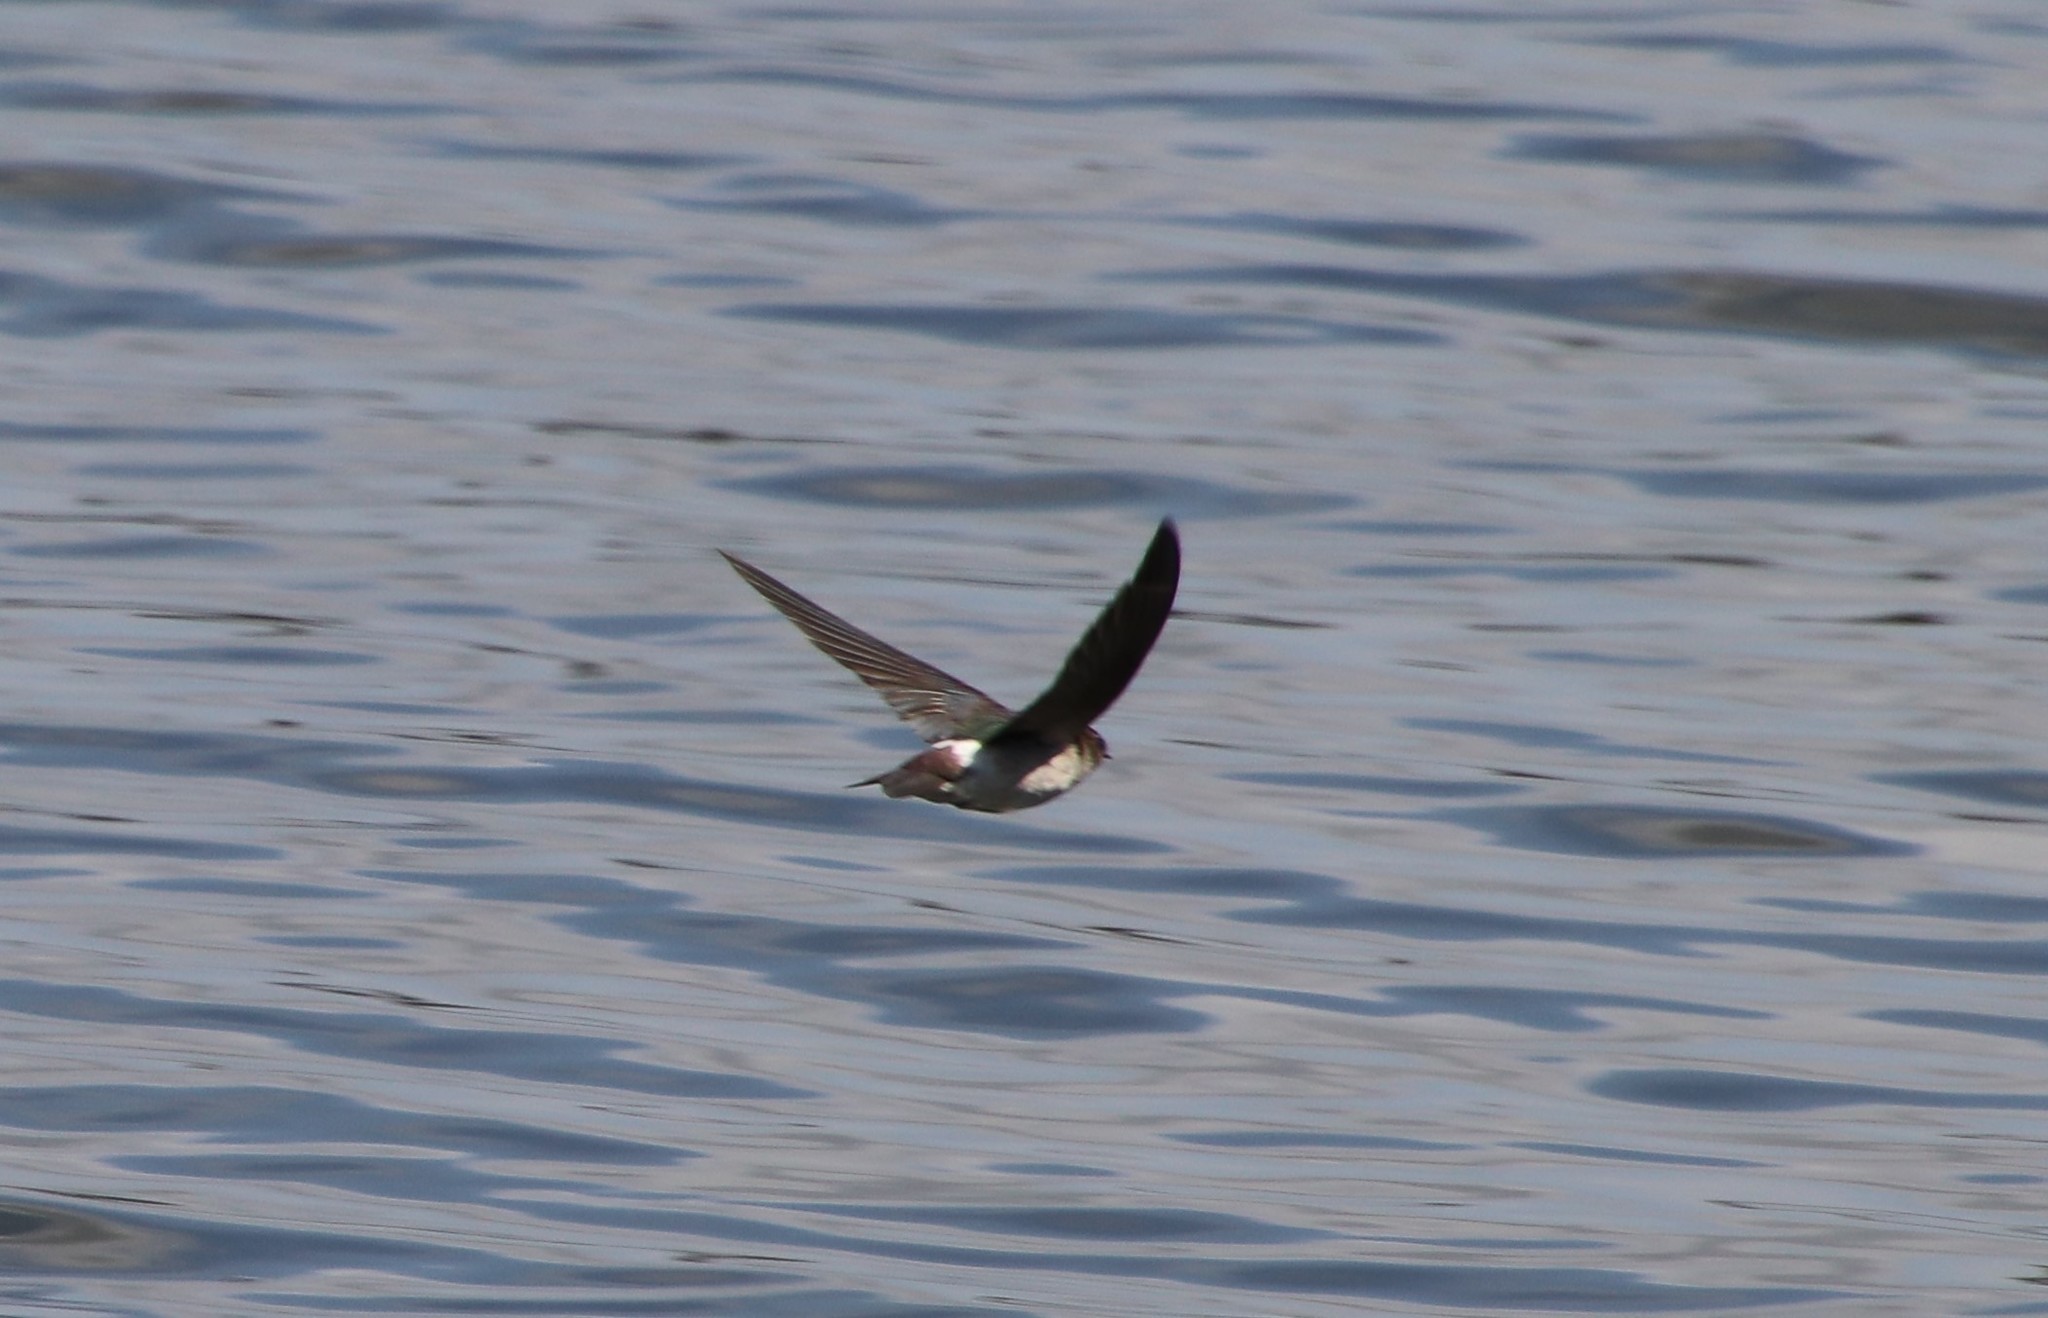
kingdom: Animalia
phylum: Chordata
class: Aves
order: Passeriformes
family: Hirundinidae
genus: Tachycineta
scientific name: Tachycineta thalassina
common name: Violet-green swallow
